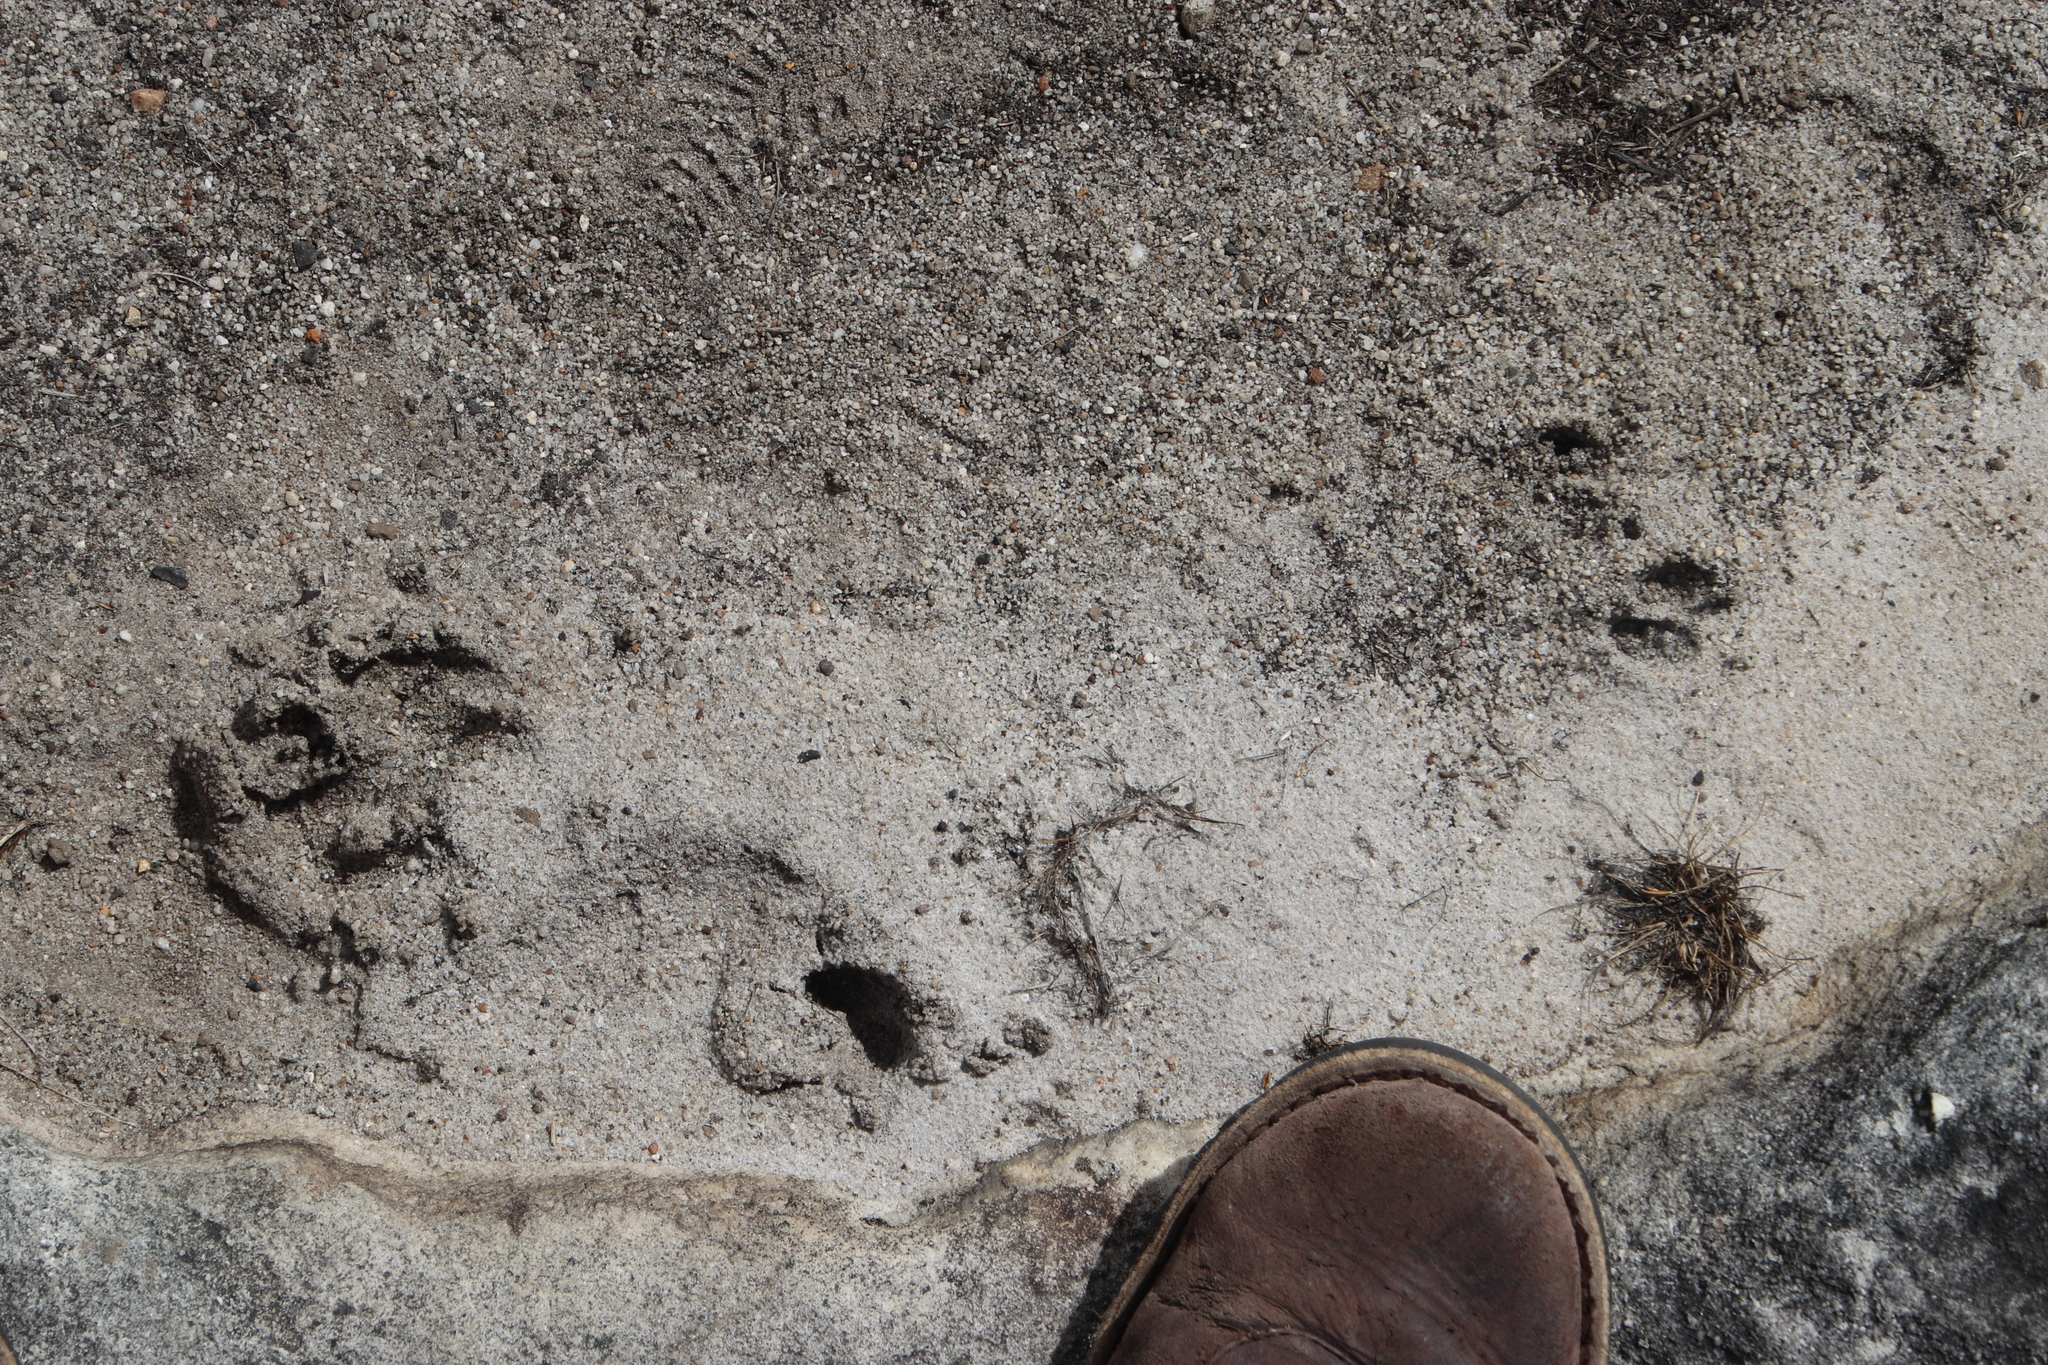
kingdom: Animalia
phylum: Chordata
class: Mammalia
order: Artiodactyla
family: Bovidae
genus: Oreotragus
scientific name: Oreotragus oreotragus
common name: Klipspringer
